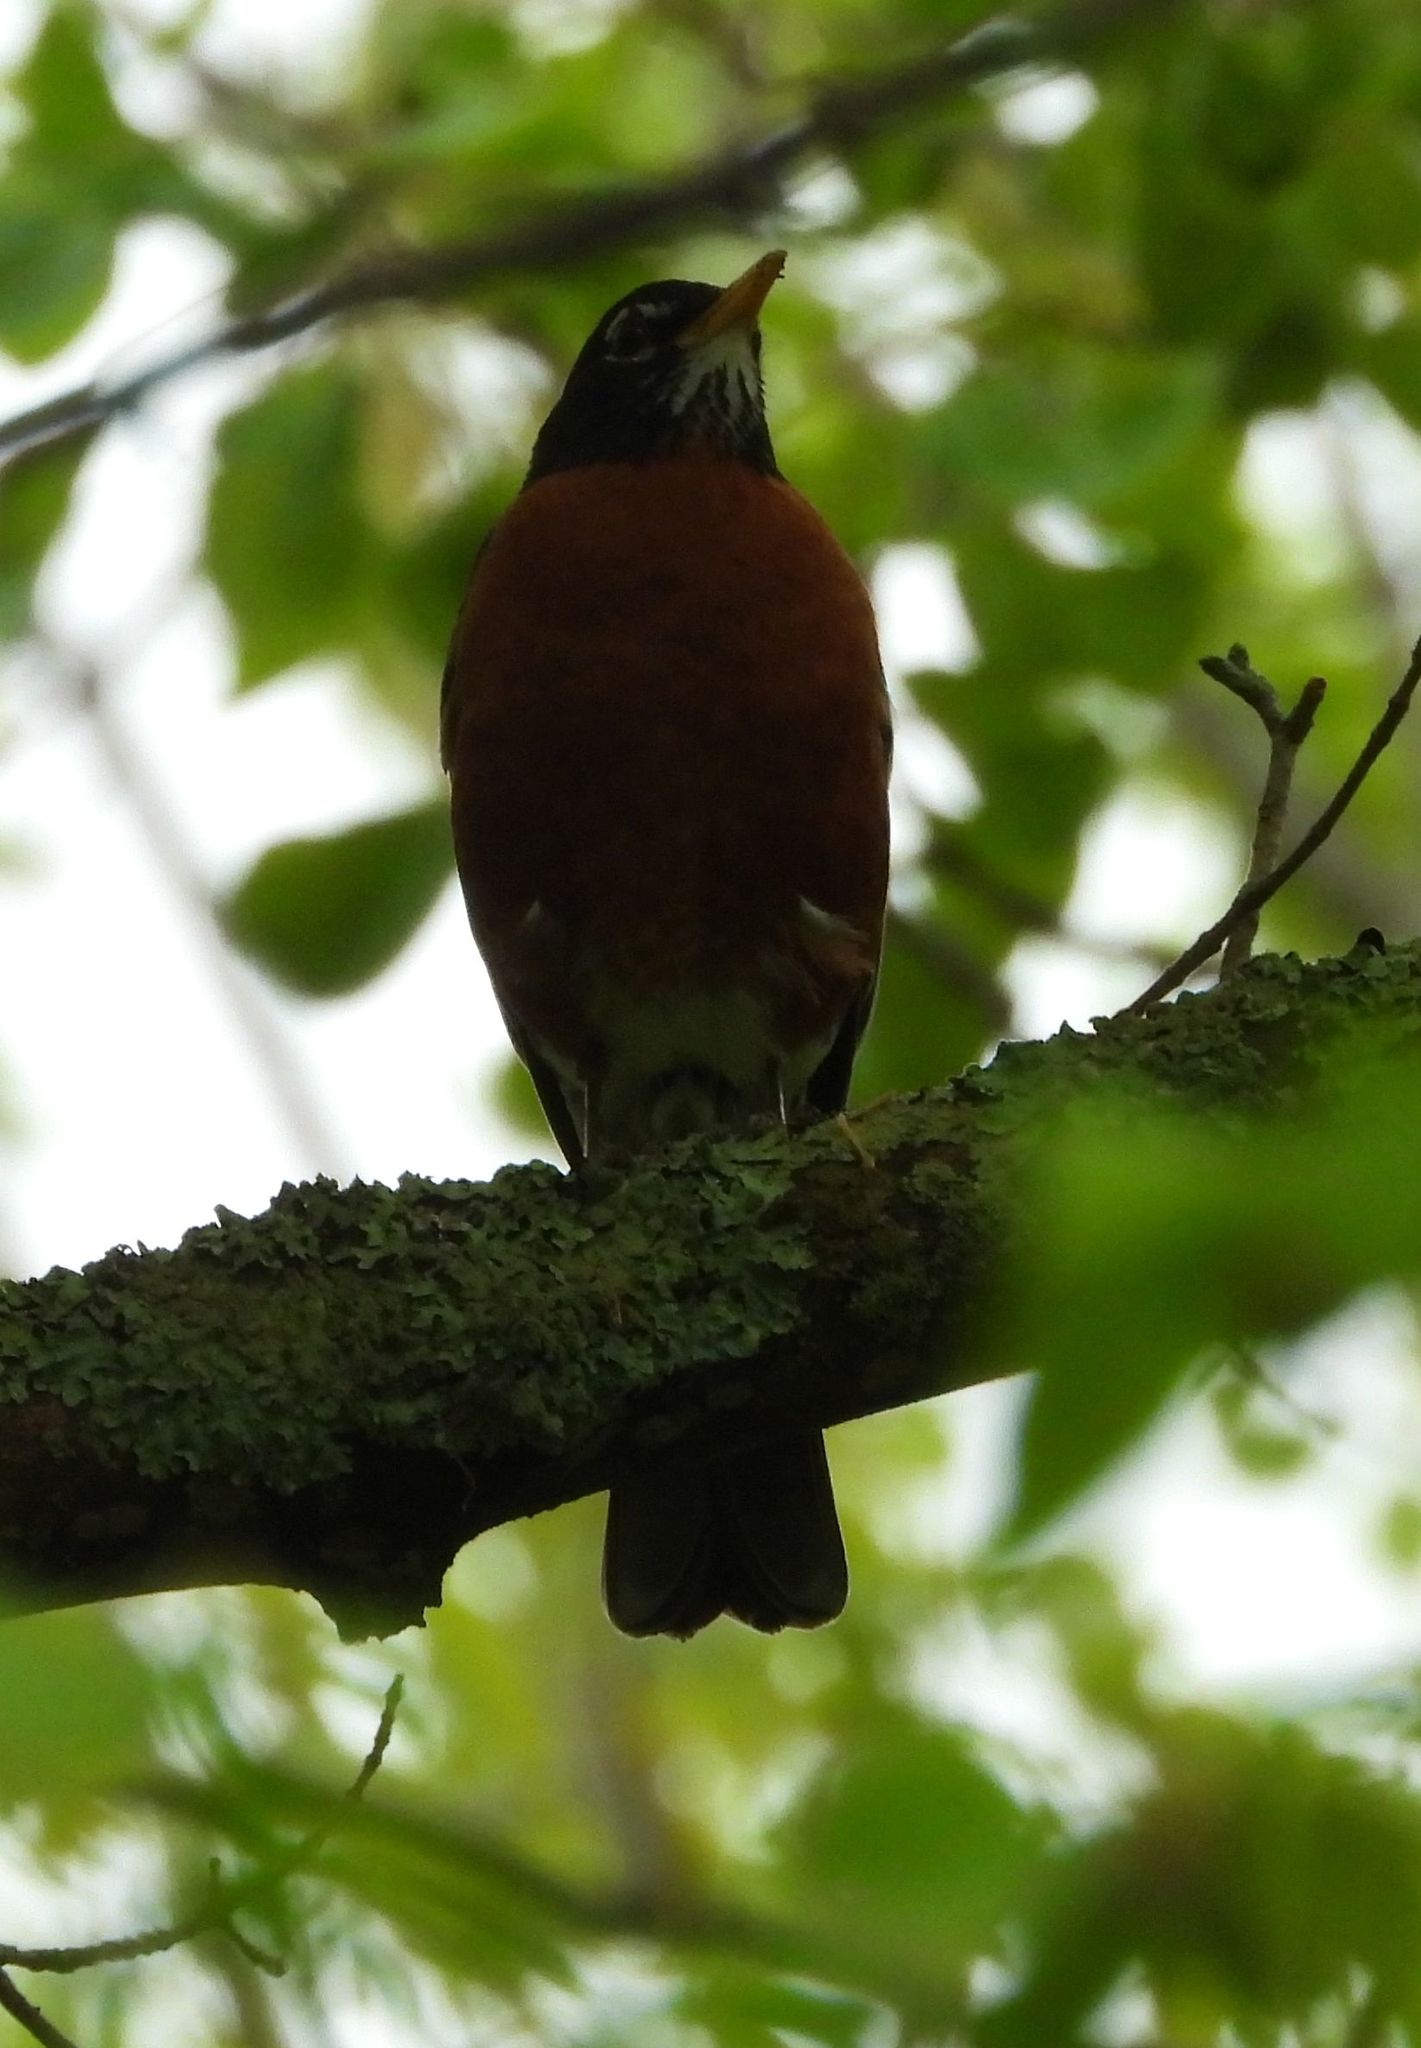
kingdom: Animalia
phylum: Chordata
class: Aves
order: Passeriformes
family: Turdidae
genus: Turdus
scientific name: Turdus migratorius
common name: American robin
